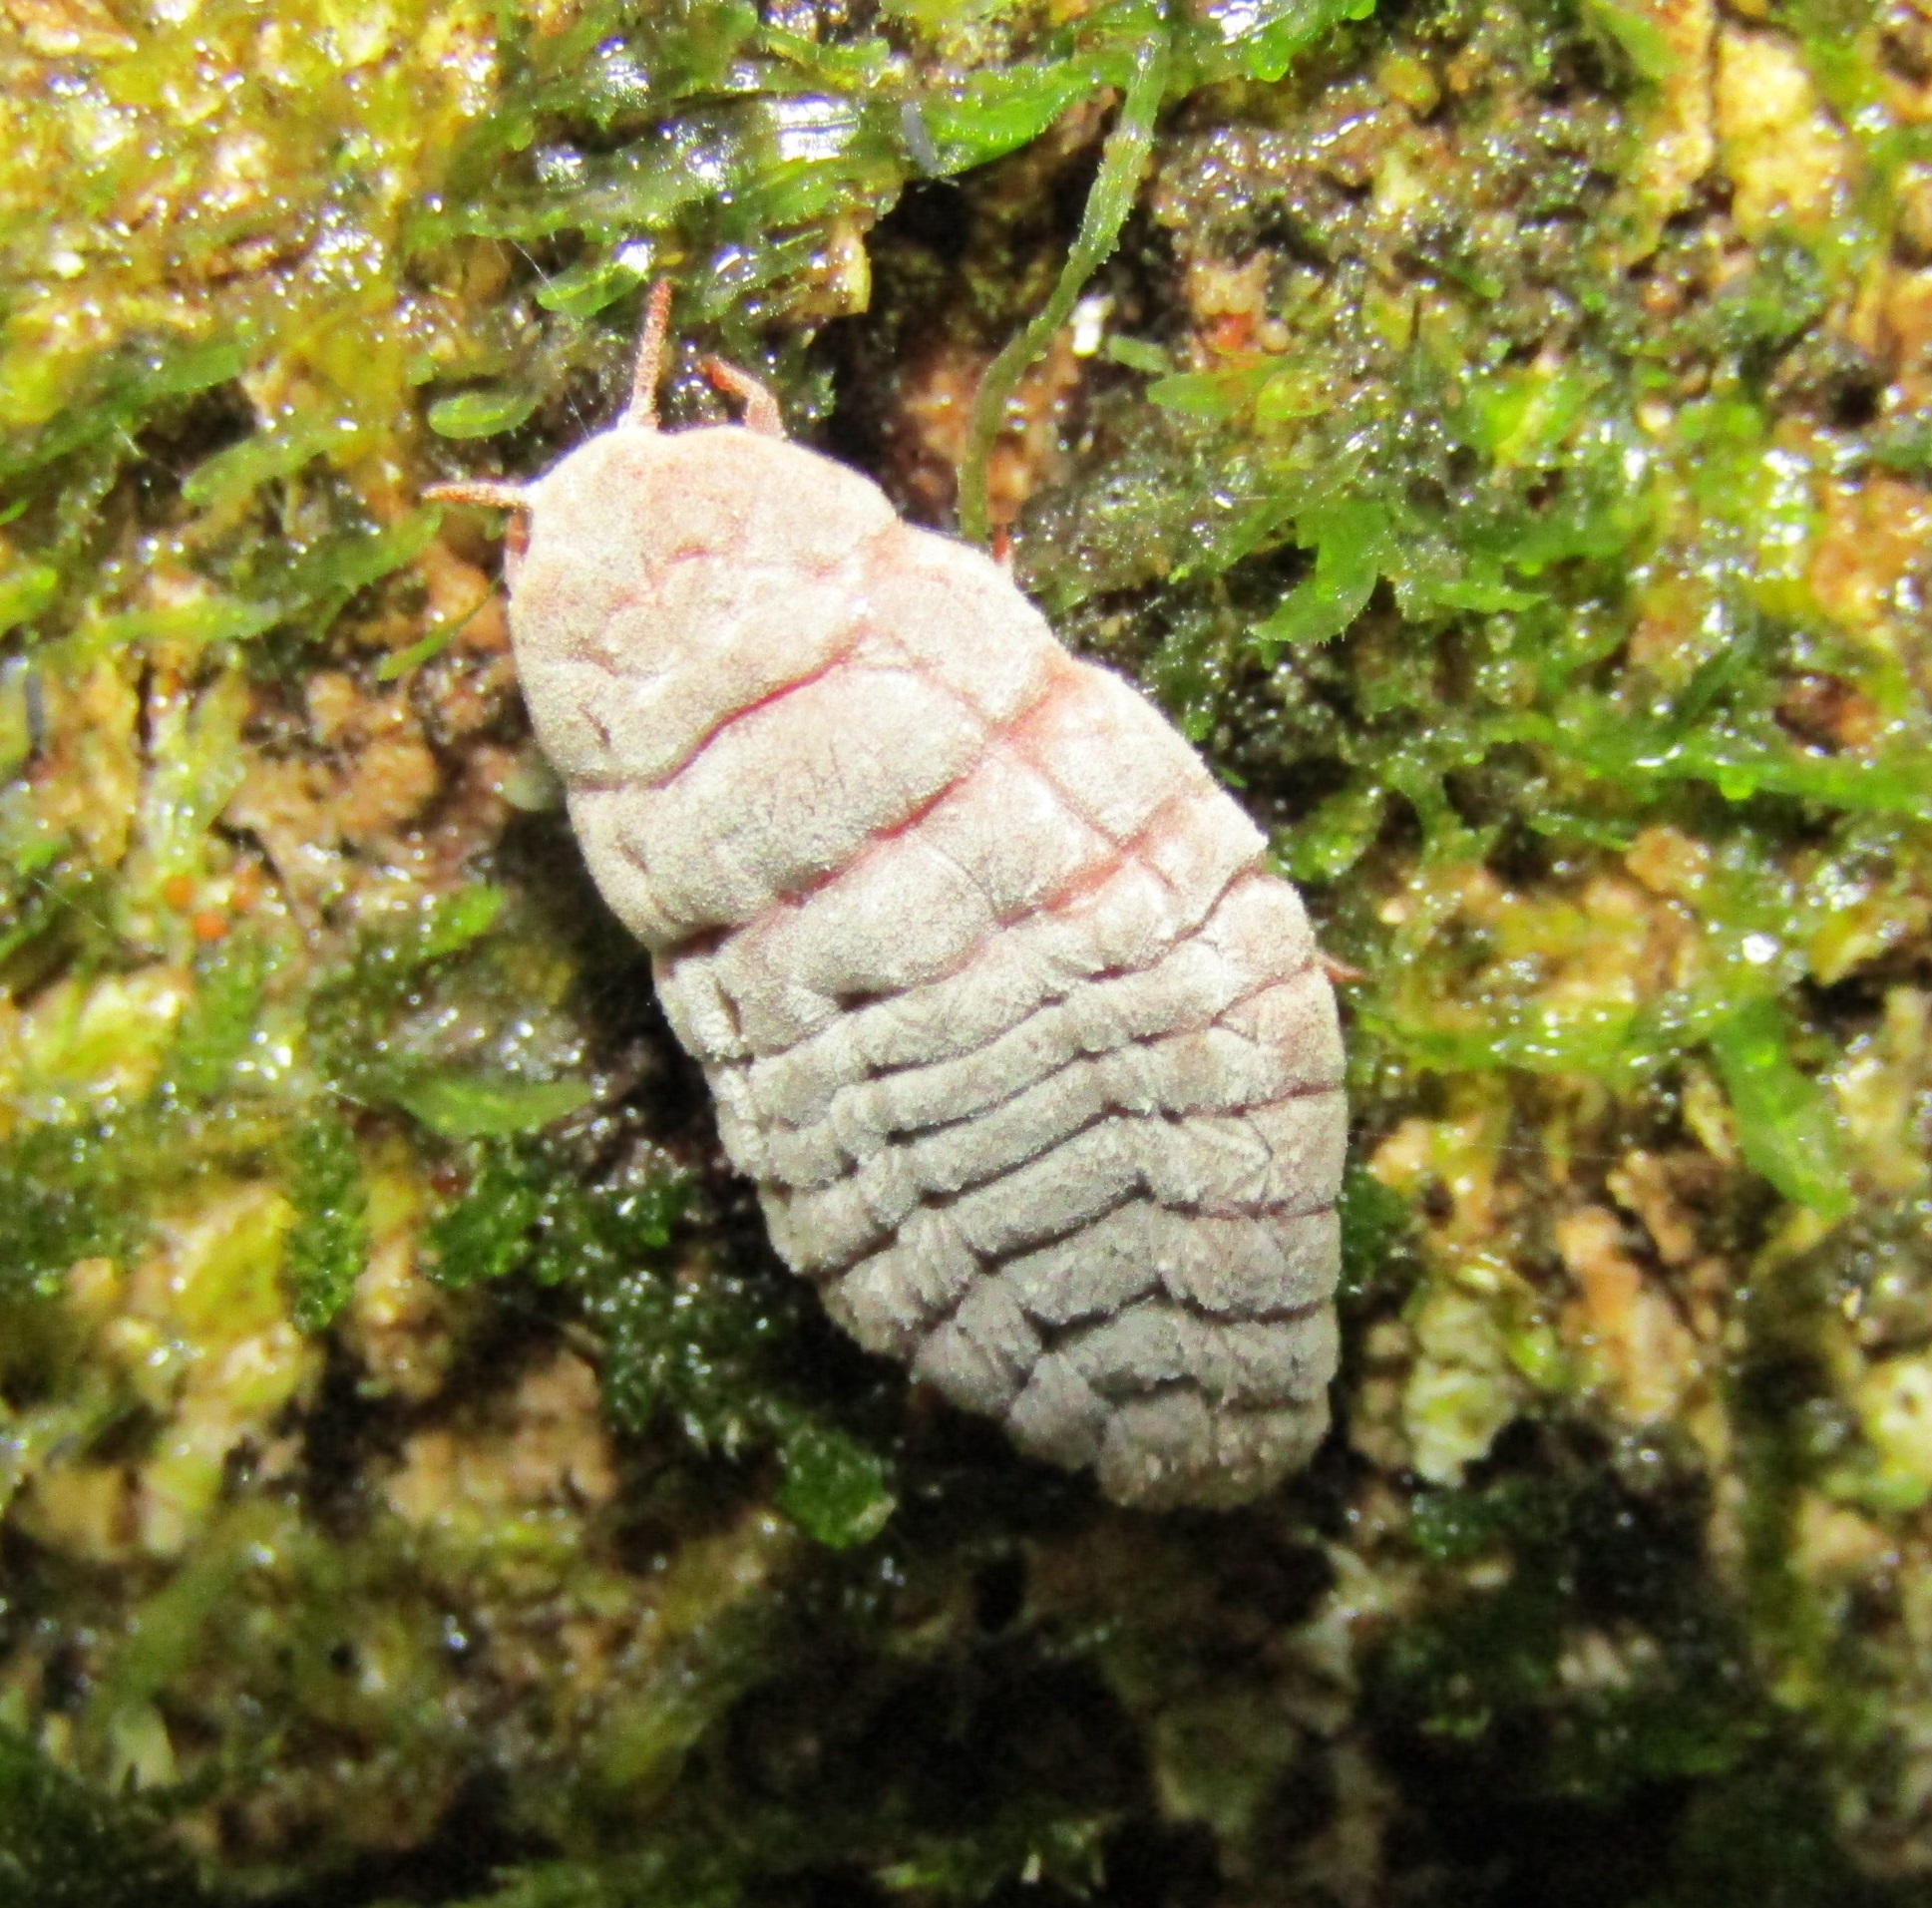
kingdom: Animalia
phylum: Arthropoda
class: Insecta
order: Hemiptera
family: Margarodidae
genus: Coelostomidia
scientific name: Coelostomidia zealandica
